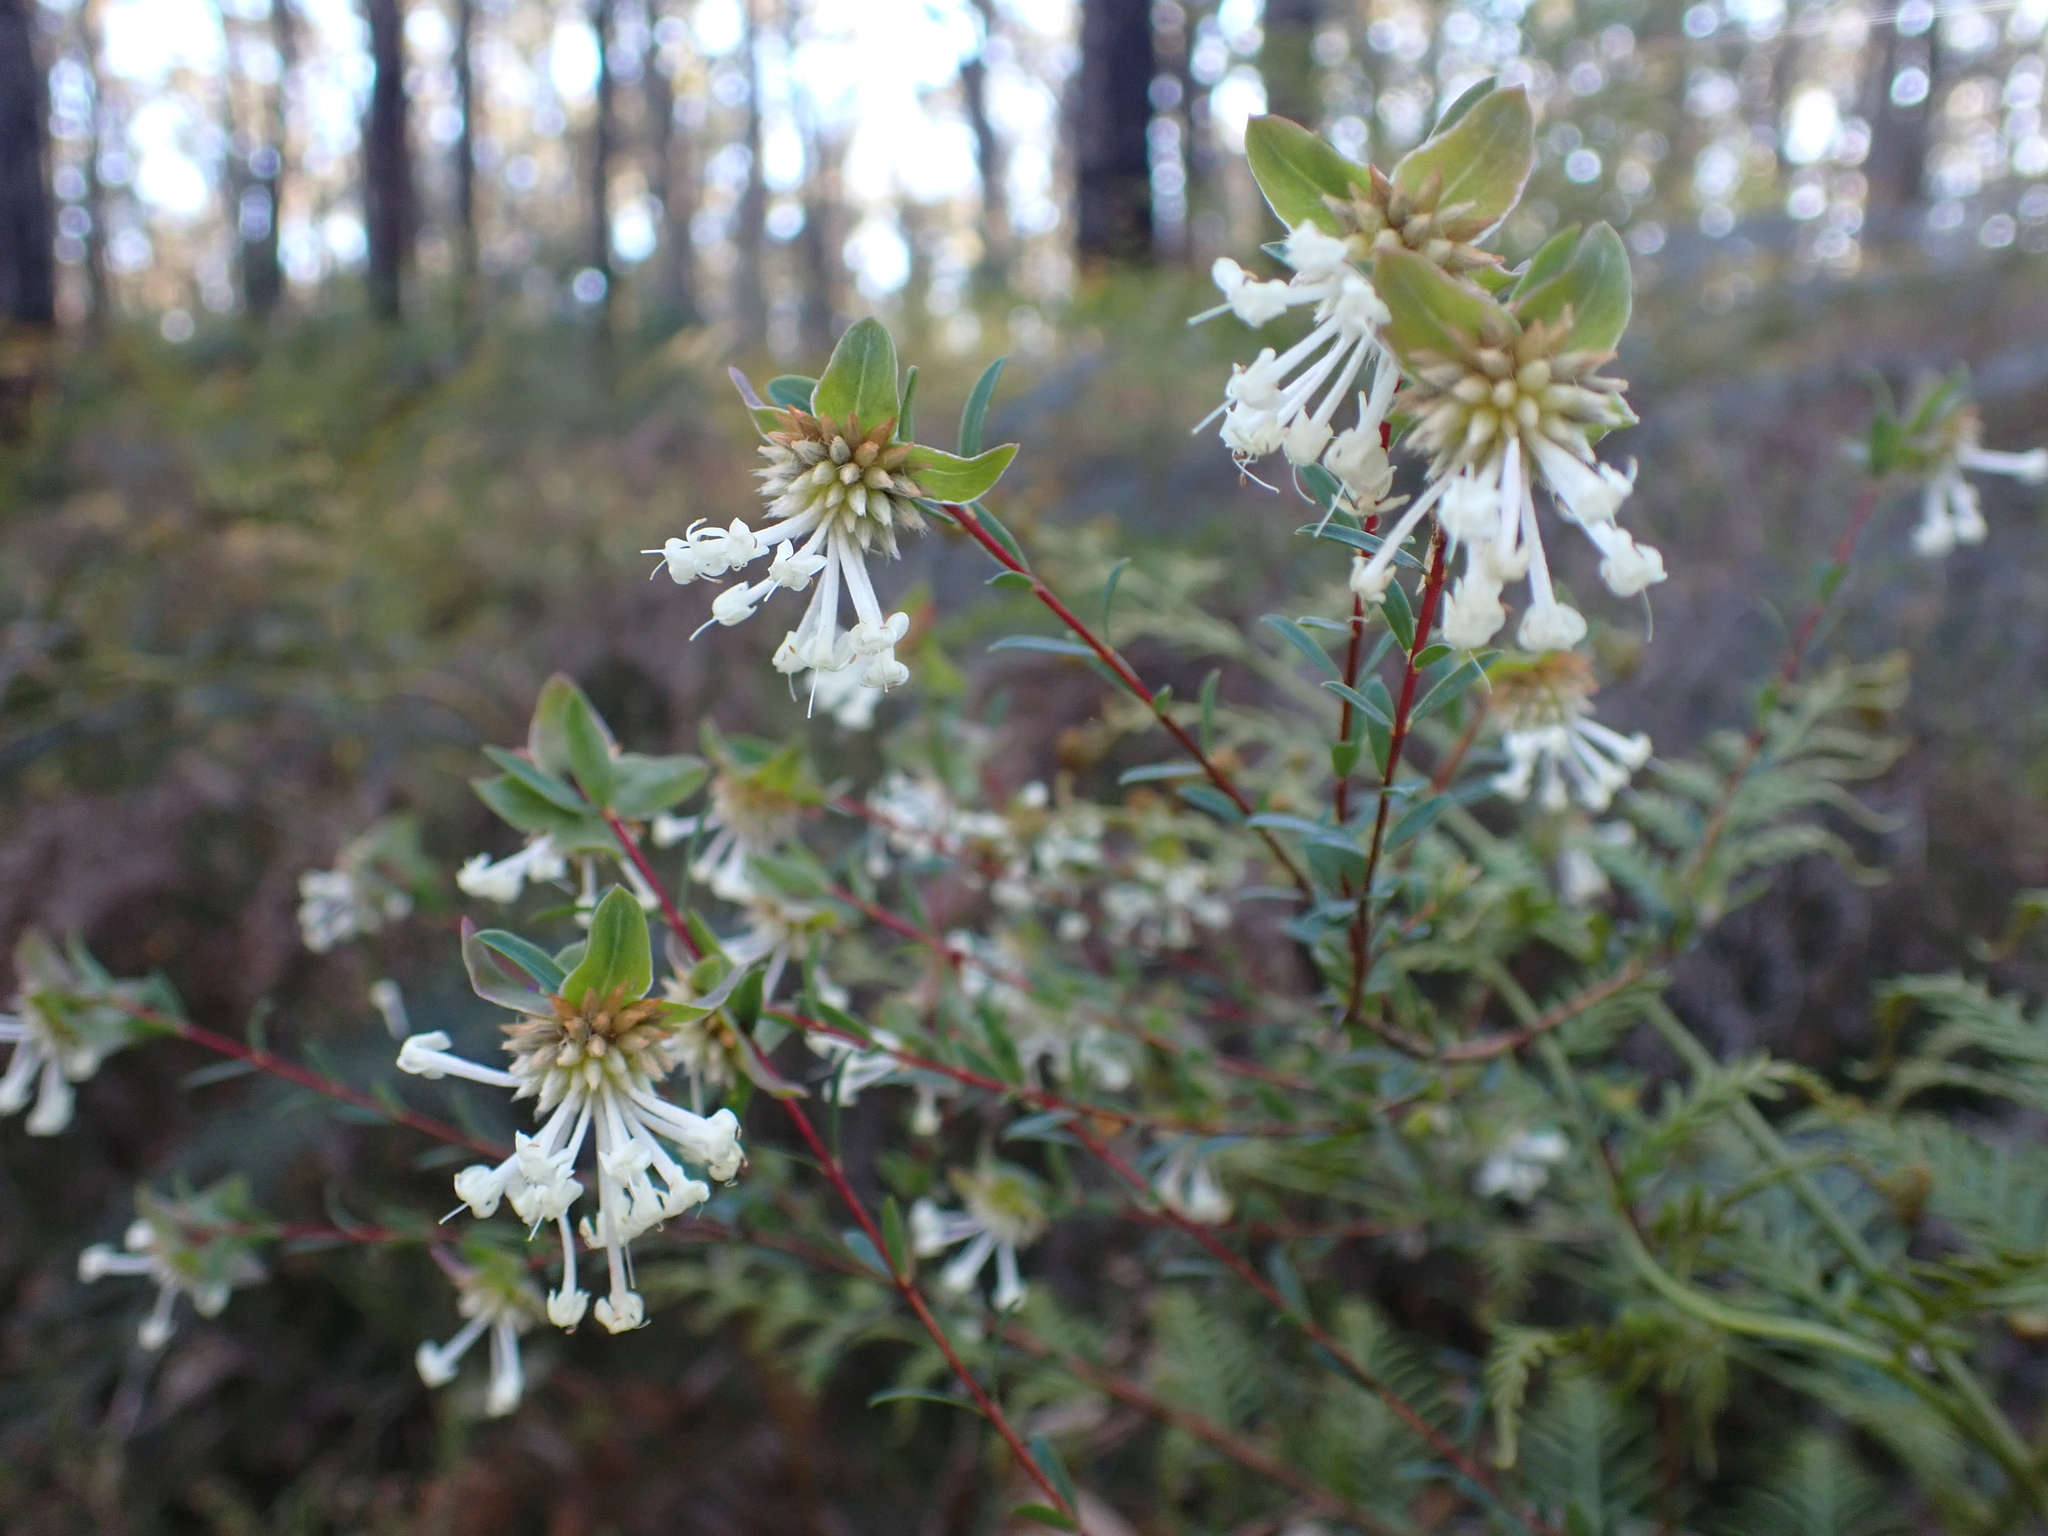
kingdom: Plantae
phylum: Tracheophyta
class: Magnoliopsida
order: Malvales
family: Thymelaeaceae
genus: Pimelea
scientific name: Pimelea linifolia
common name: Queen-of-the-bush
